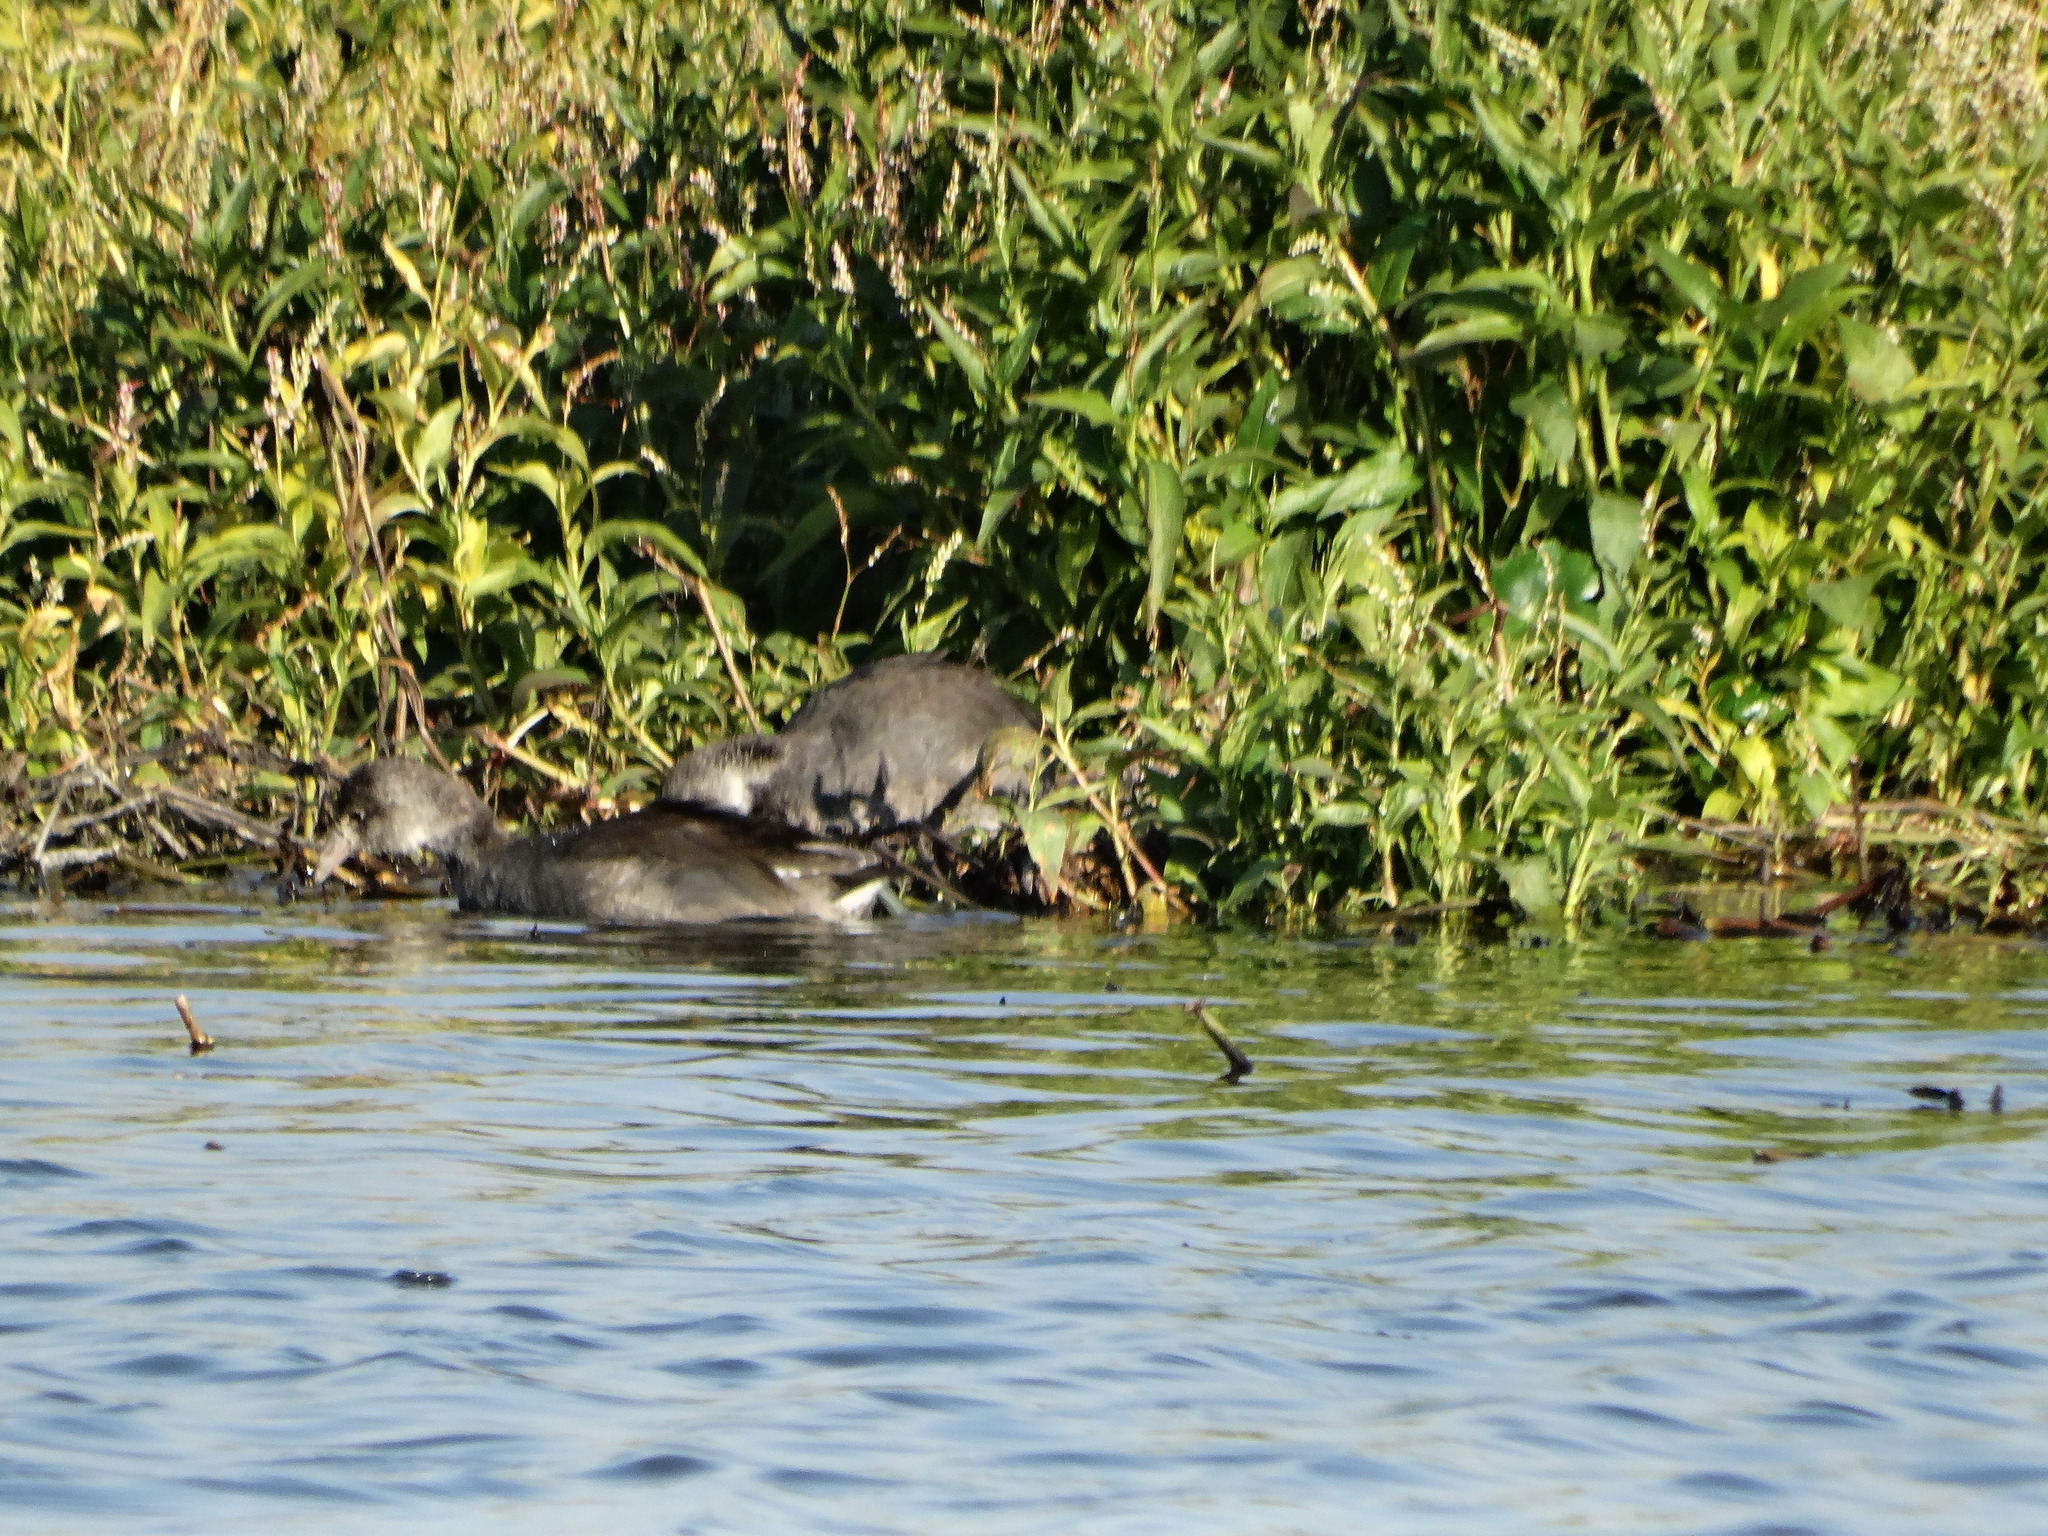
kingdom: Animalia
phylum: Chordata
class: Aves
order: Gruiformes
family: Rallidae
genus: Gallinula
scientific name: Gallinula chloropus
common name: Common moorhen
